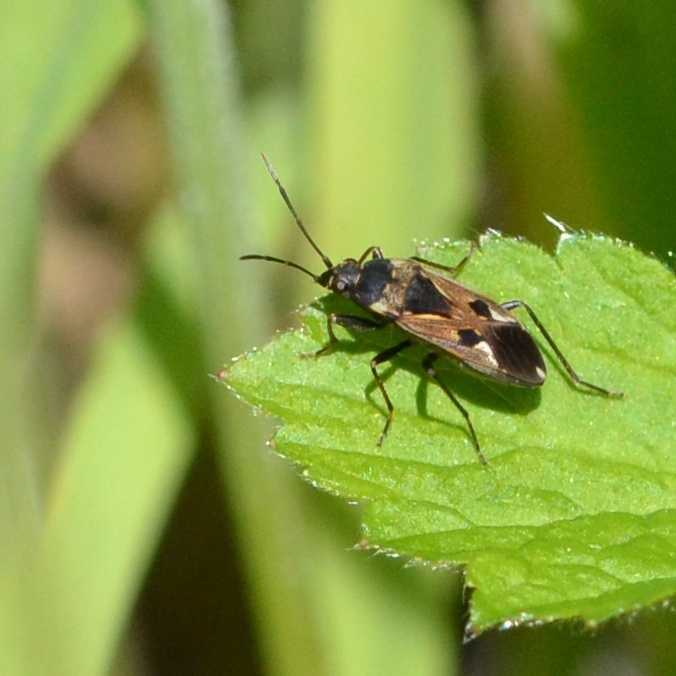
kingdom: Animalia
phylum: Arthropoda
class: Insecta
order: Hemiptera
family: Rhyparochromidae
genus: Rhyparochromus
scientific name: Rhyparochromus vulgaris
